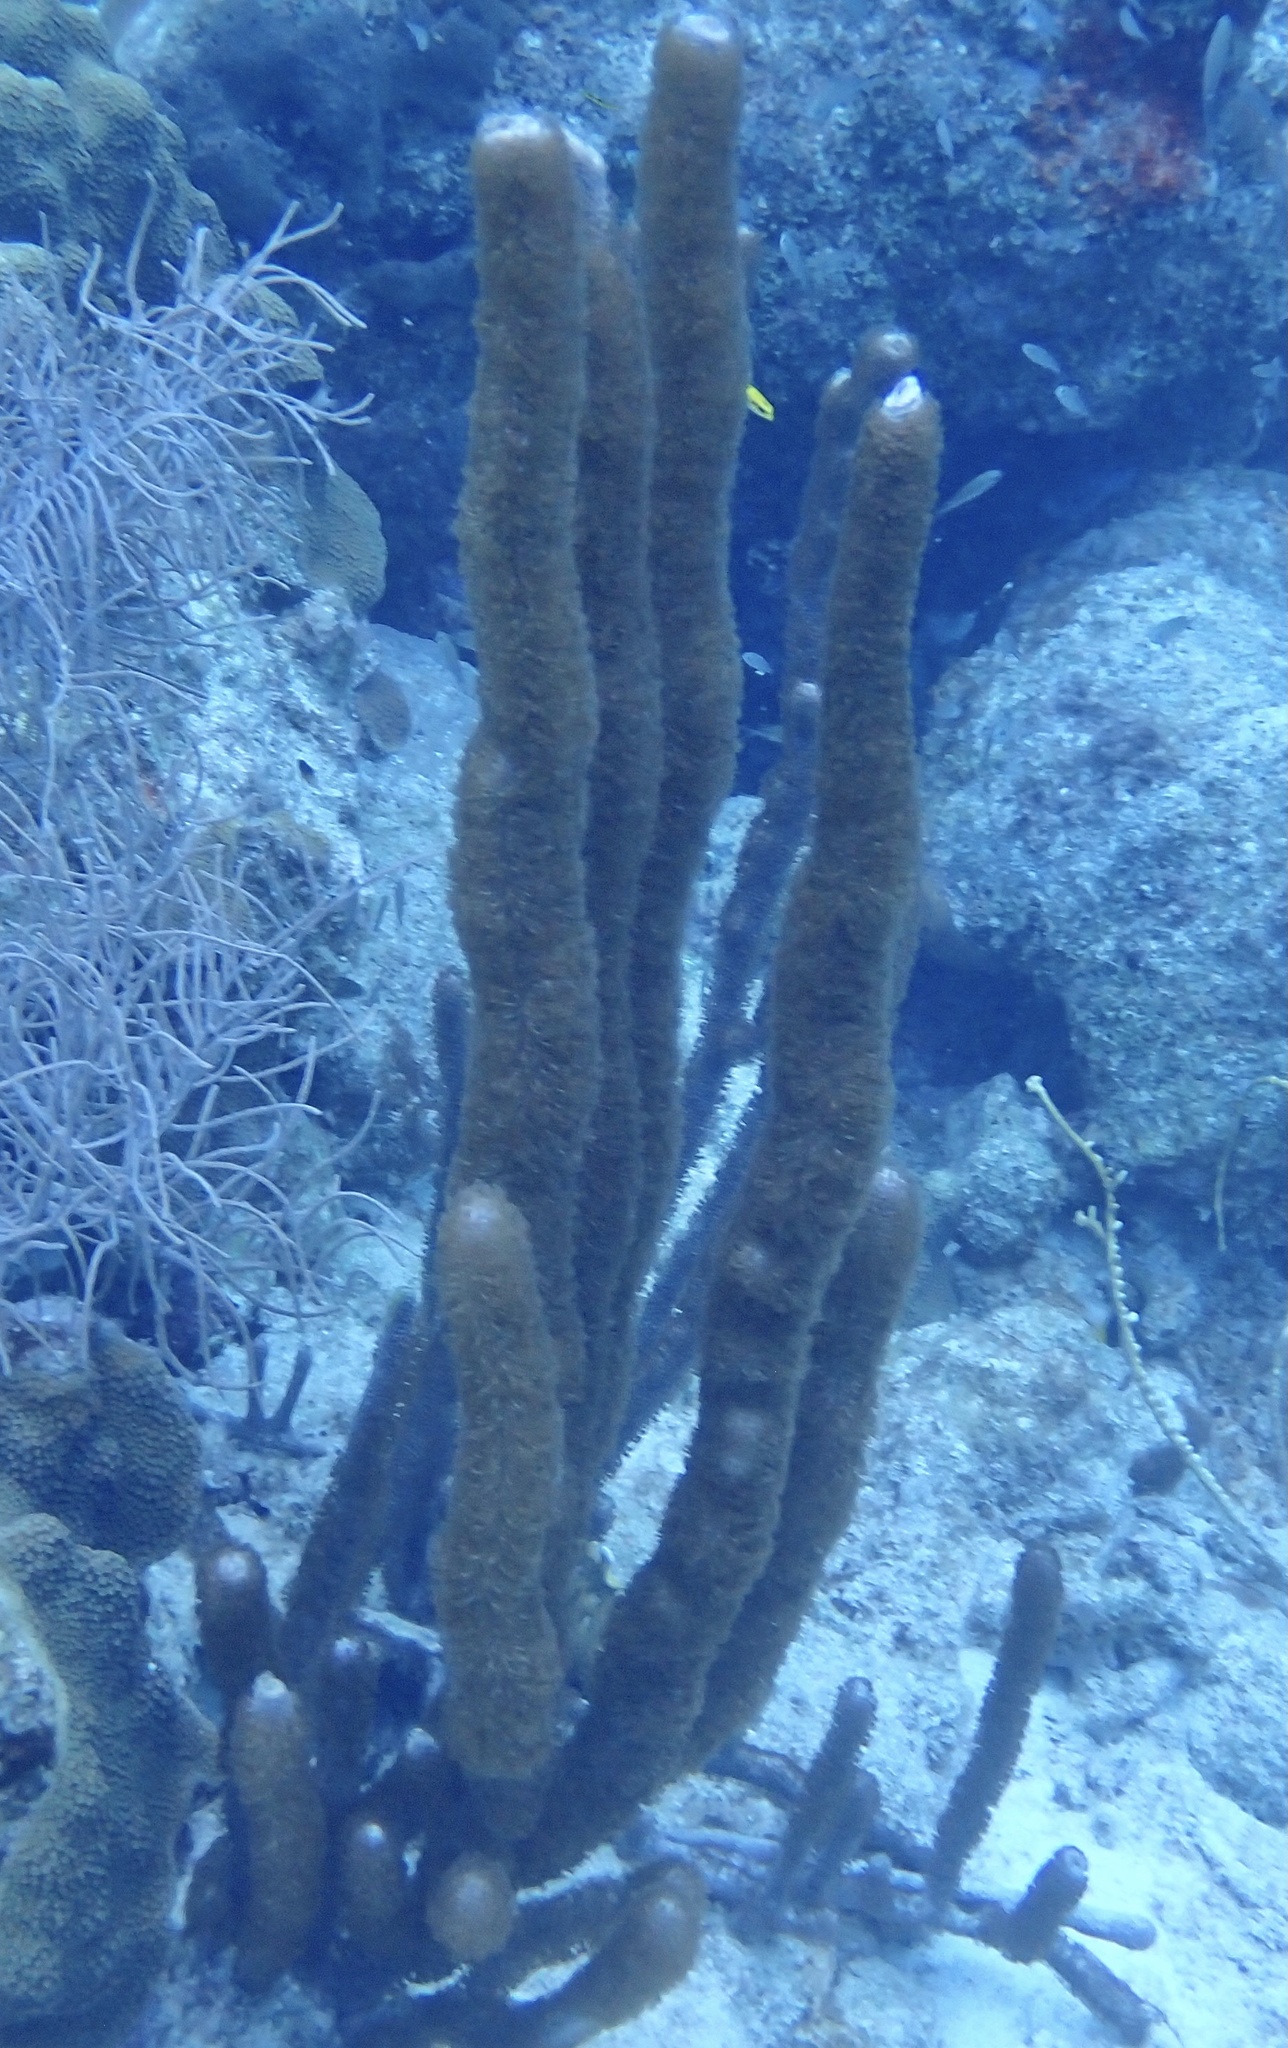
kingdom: Animalia
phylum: Cnidaria
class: Anthozoa
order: Scleralcyonacea
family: Briareidae
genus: Briareum
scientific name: Briareum asbestinum
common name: Corky sea finger
